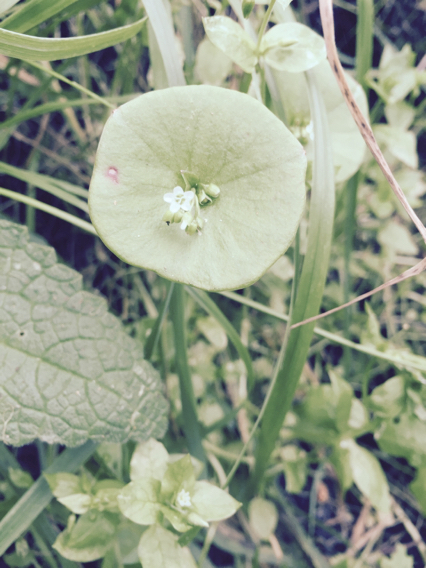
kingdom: Plantae
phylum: Tracheophyta
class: Magnoliopsida
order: Caryophyllales
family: Montiaceae
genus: Claytonia
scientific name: Claytonia perfoliata
